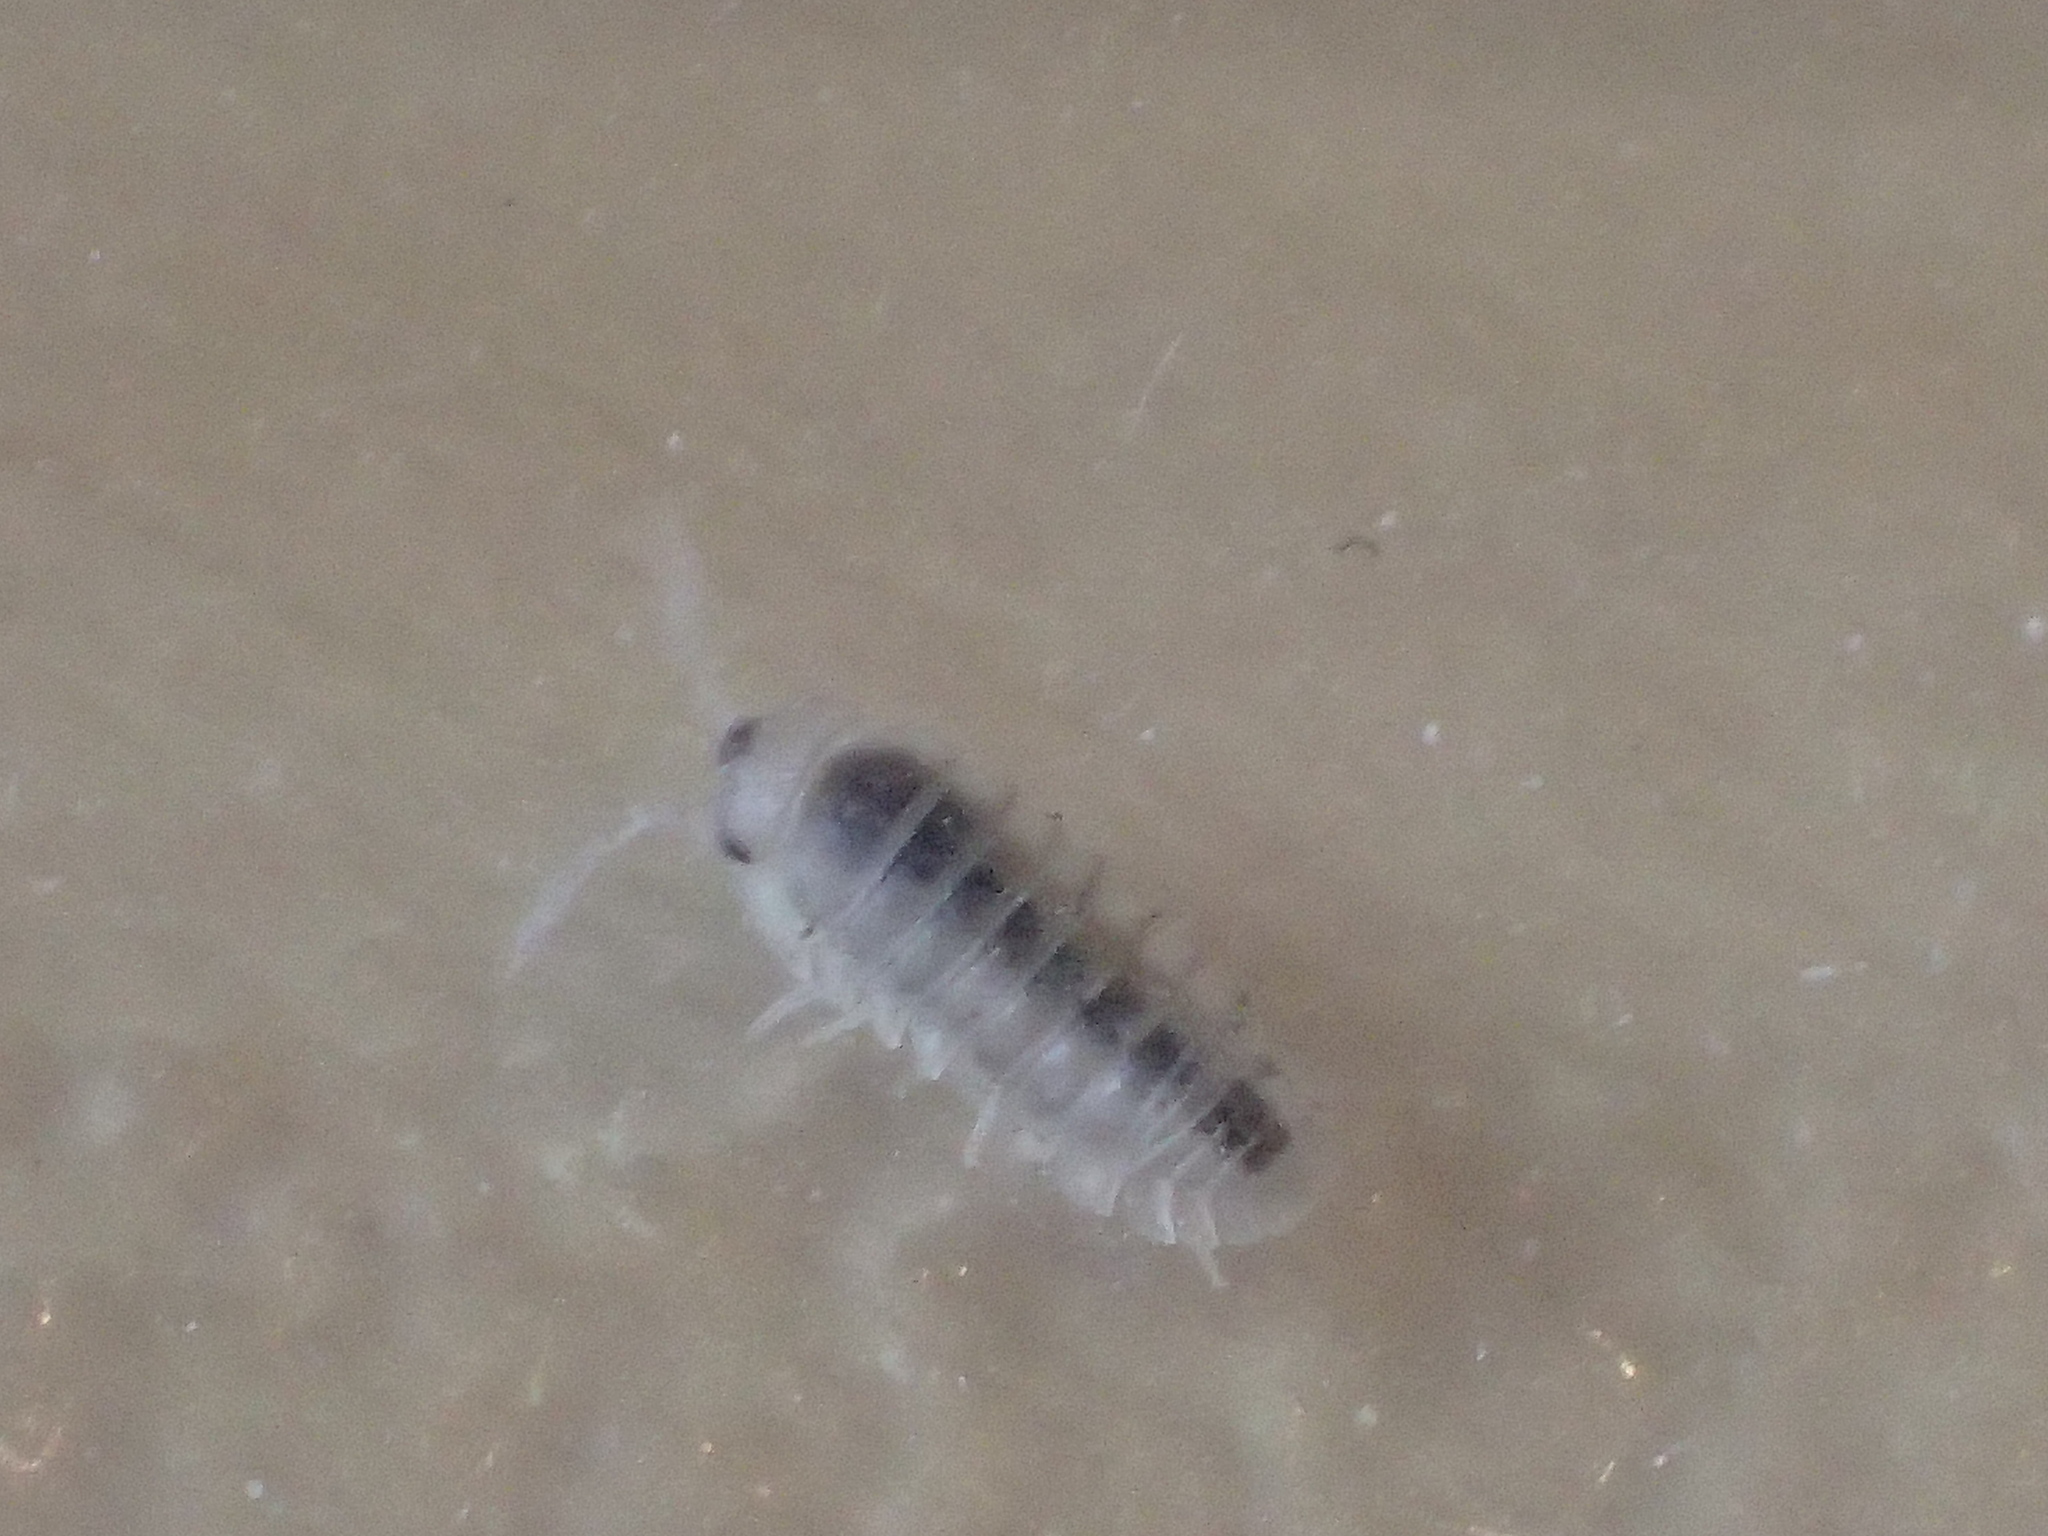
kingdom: Animalia
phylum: Arthropoda
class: Malacostraca
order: Isopoda
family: Armadillidiidae
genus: Armadillidium
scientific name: Armadillidium nasatum
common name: Isopod
